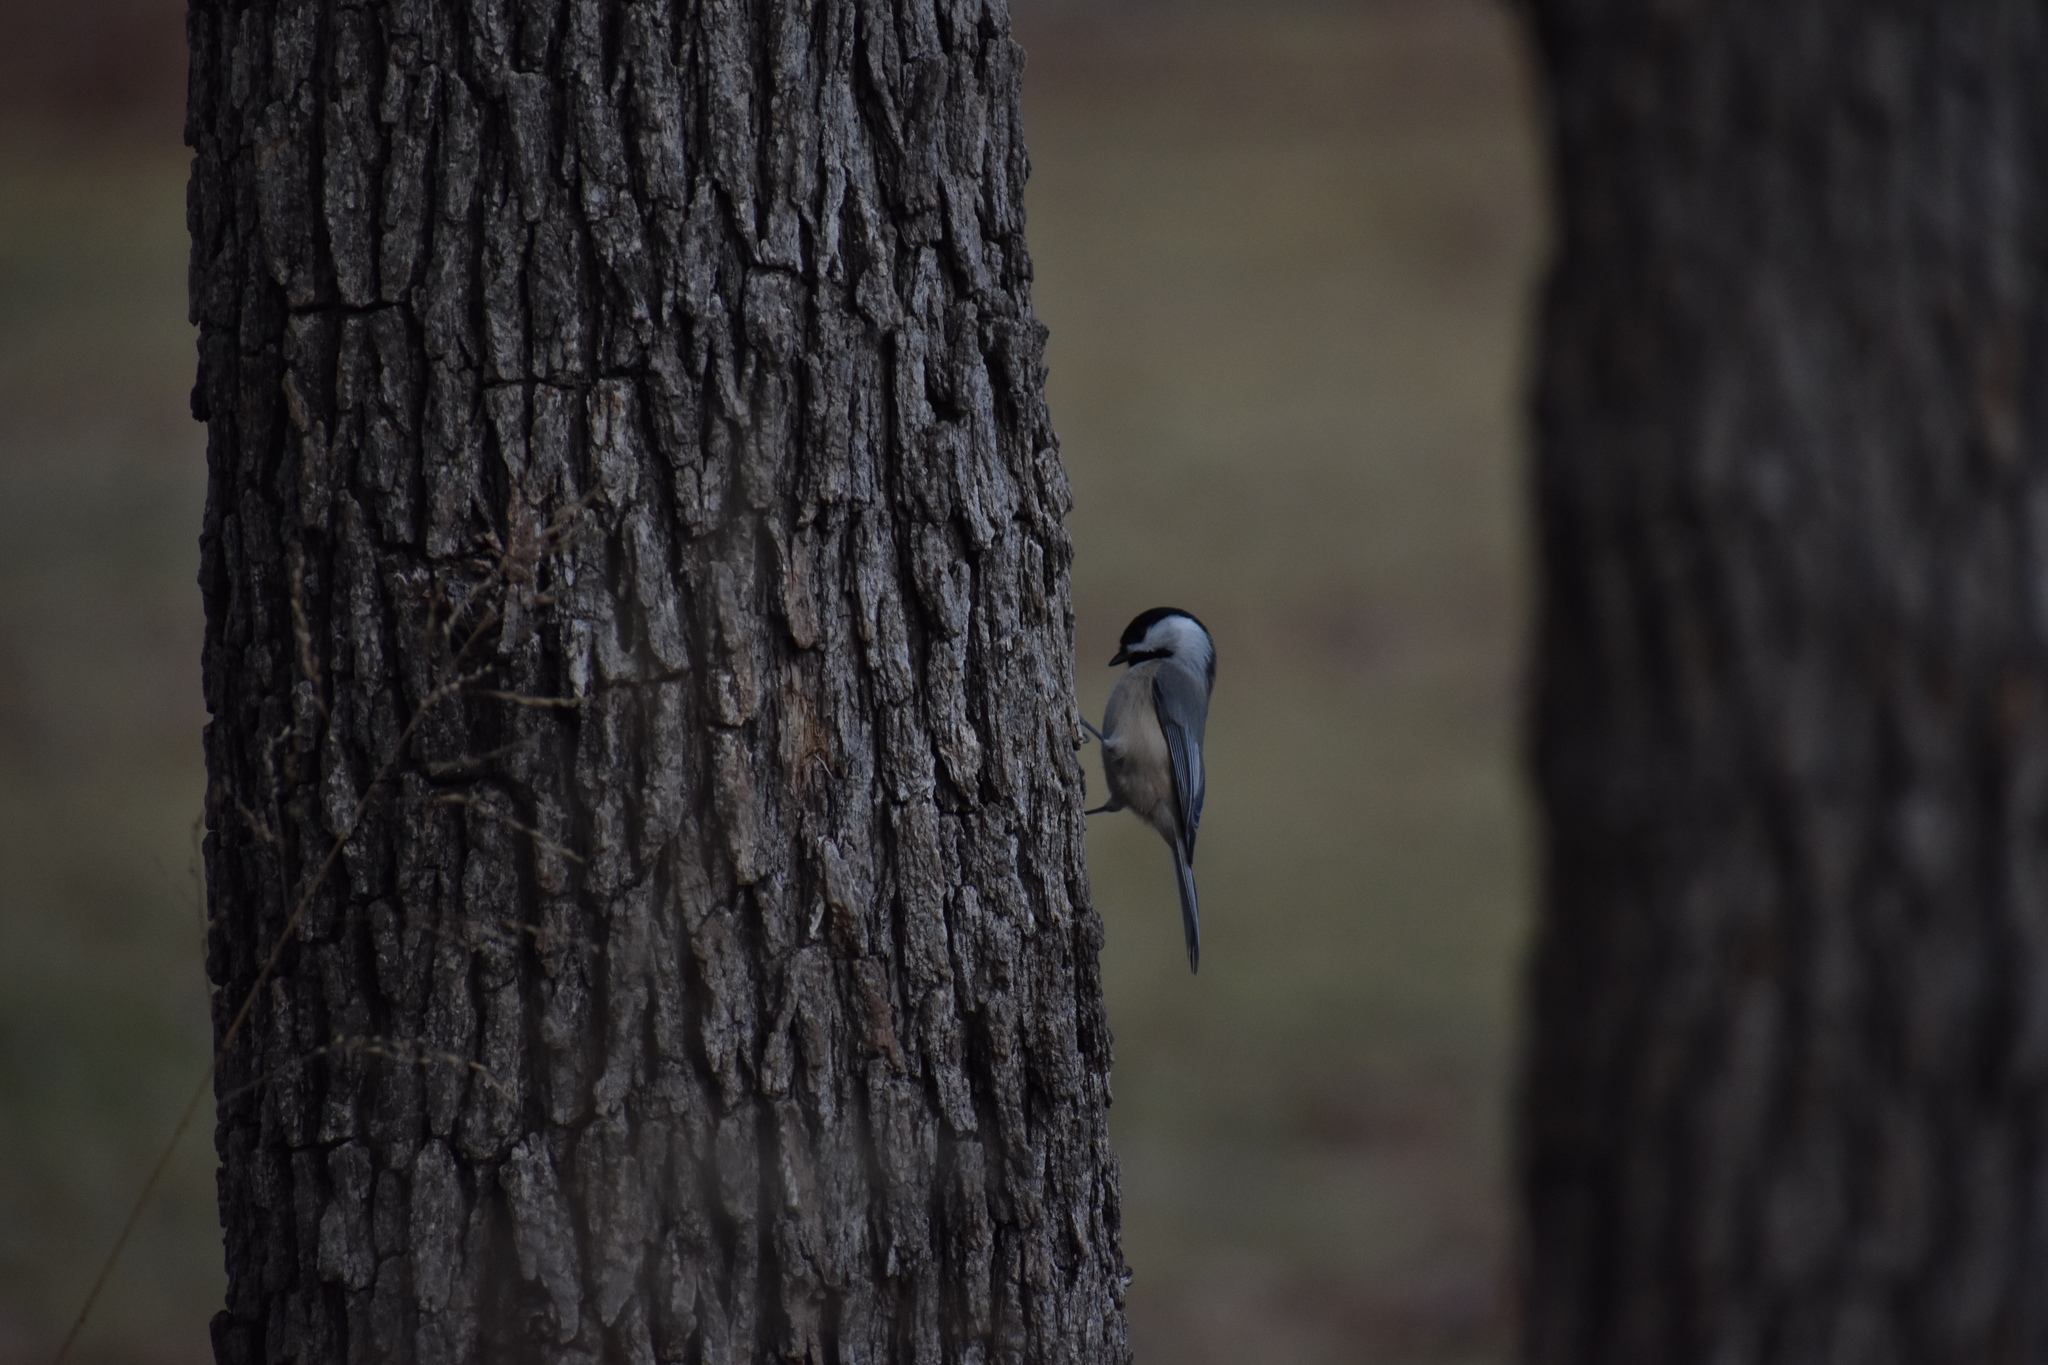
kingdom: Animalia
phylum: Chordata
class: Aves
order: Passeriformes
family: Paridae
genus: Poecile
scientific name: Poecile carolinensis
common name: Carolina chickadee
